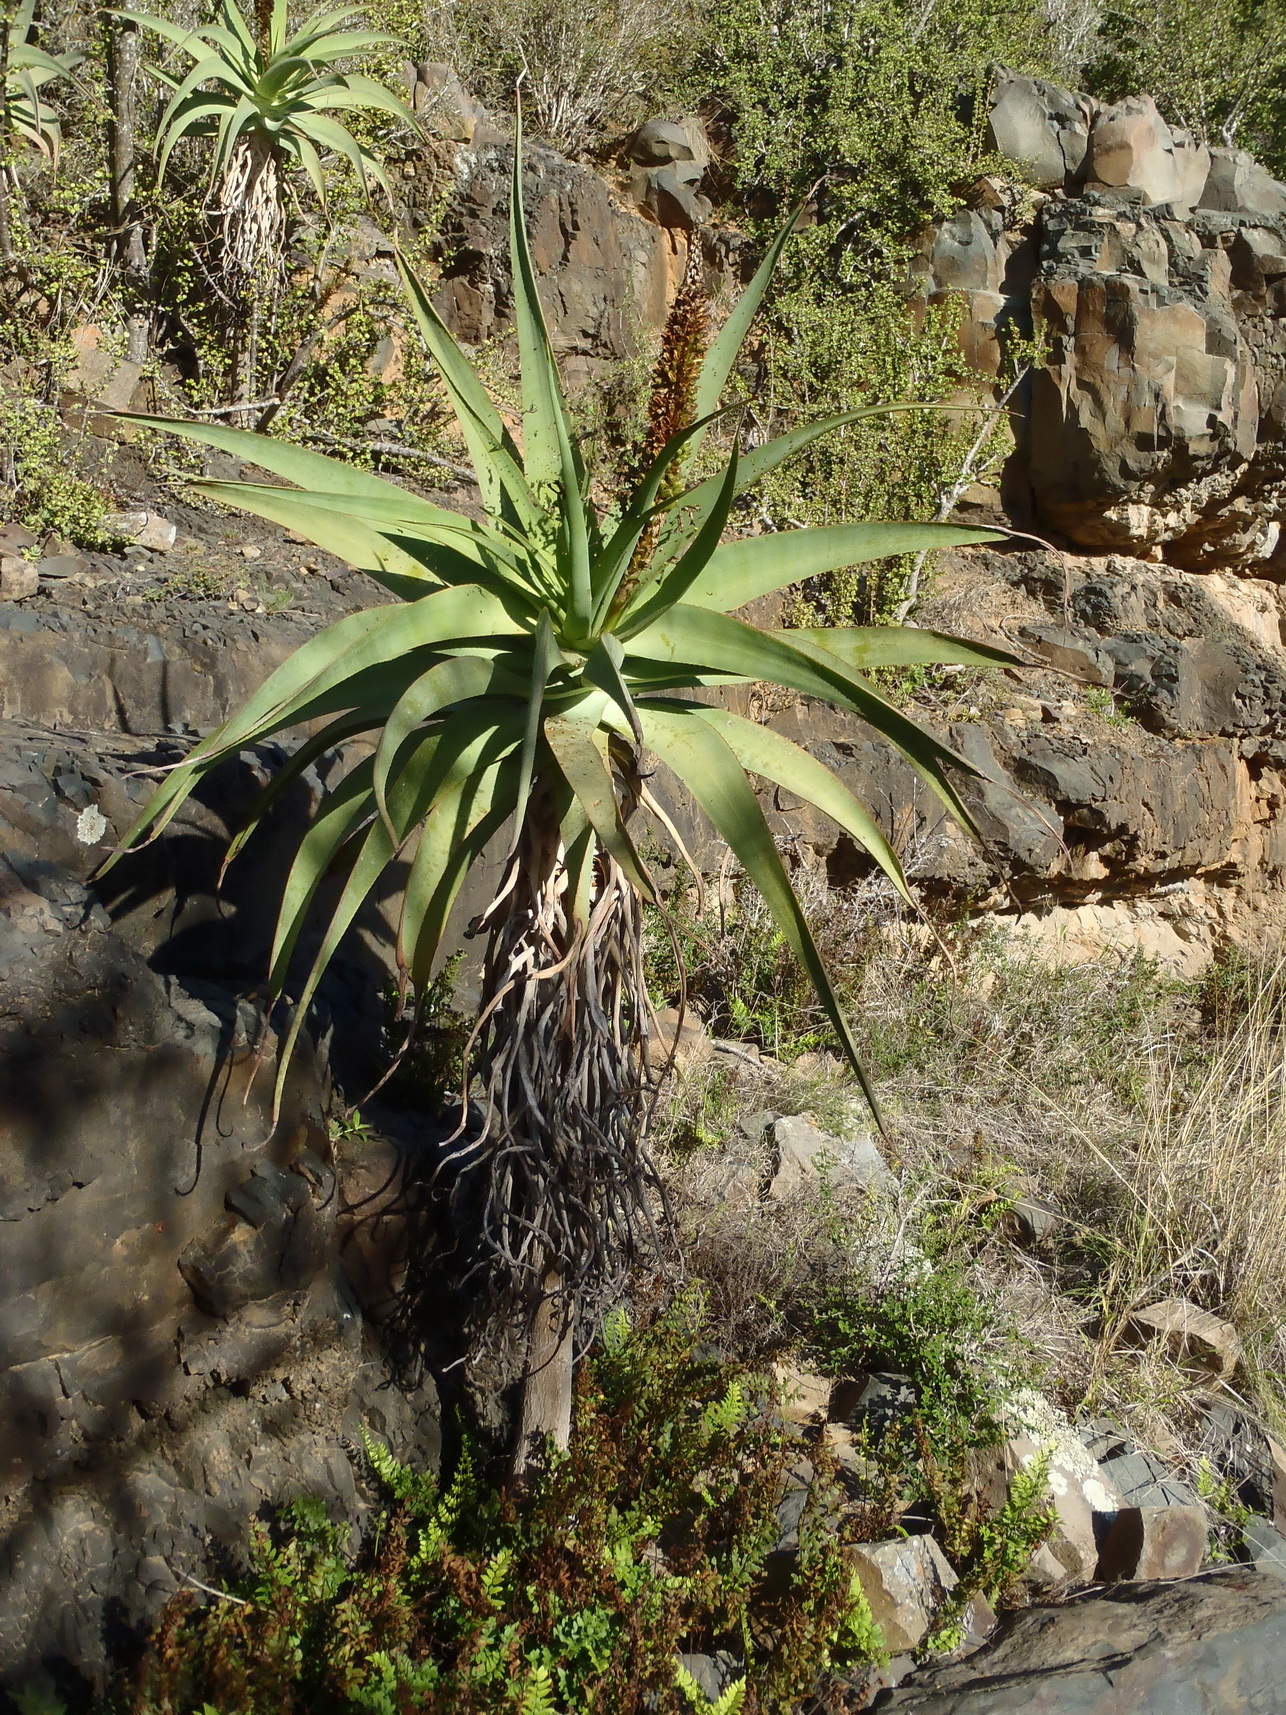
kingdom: Plantae
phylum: Tracheophyta
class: Liliopsida
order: Asparagales
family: Asphodelaceae
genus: Aloe
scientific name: Aloe speciosa
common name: Beautiful aloe
